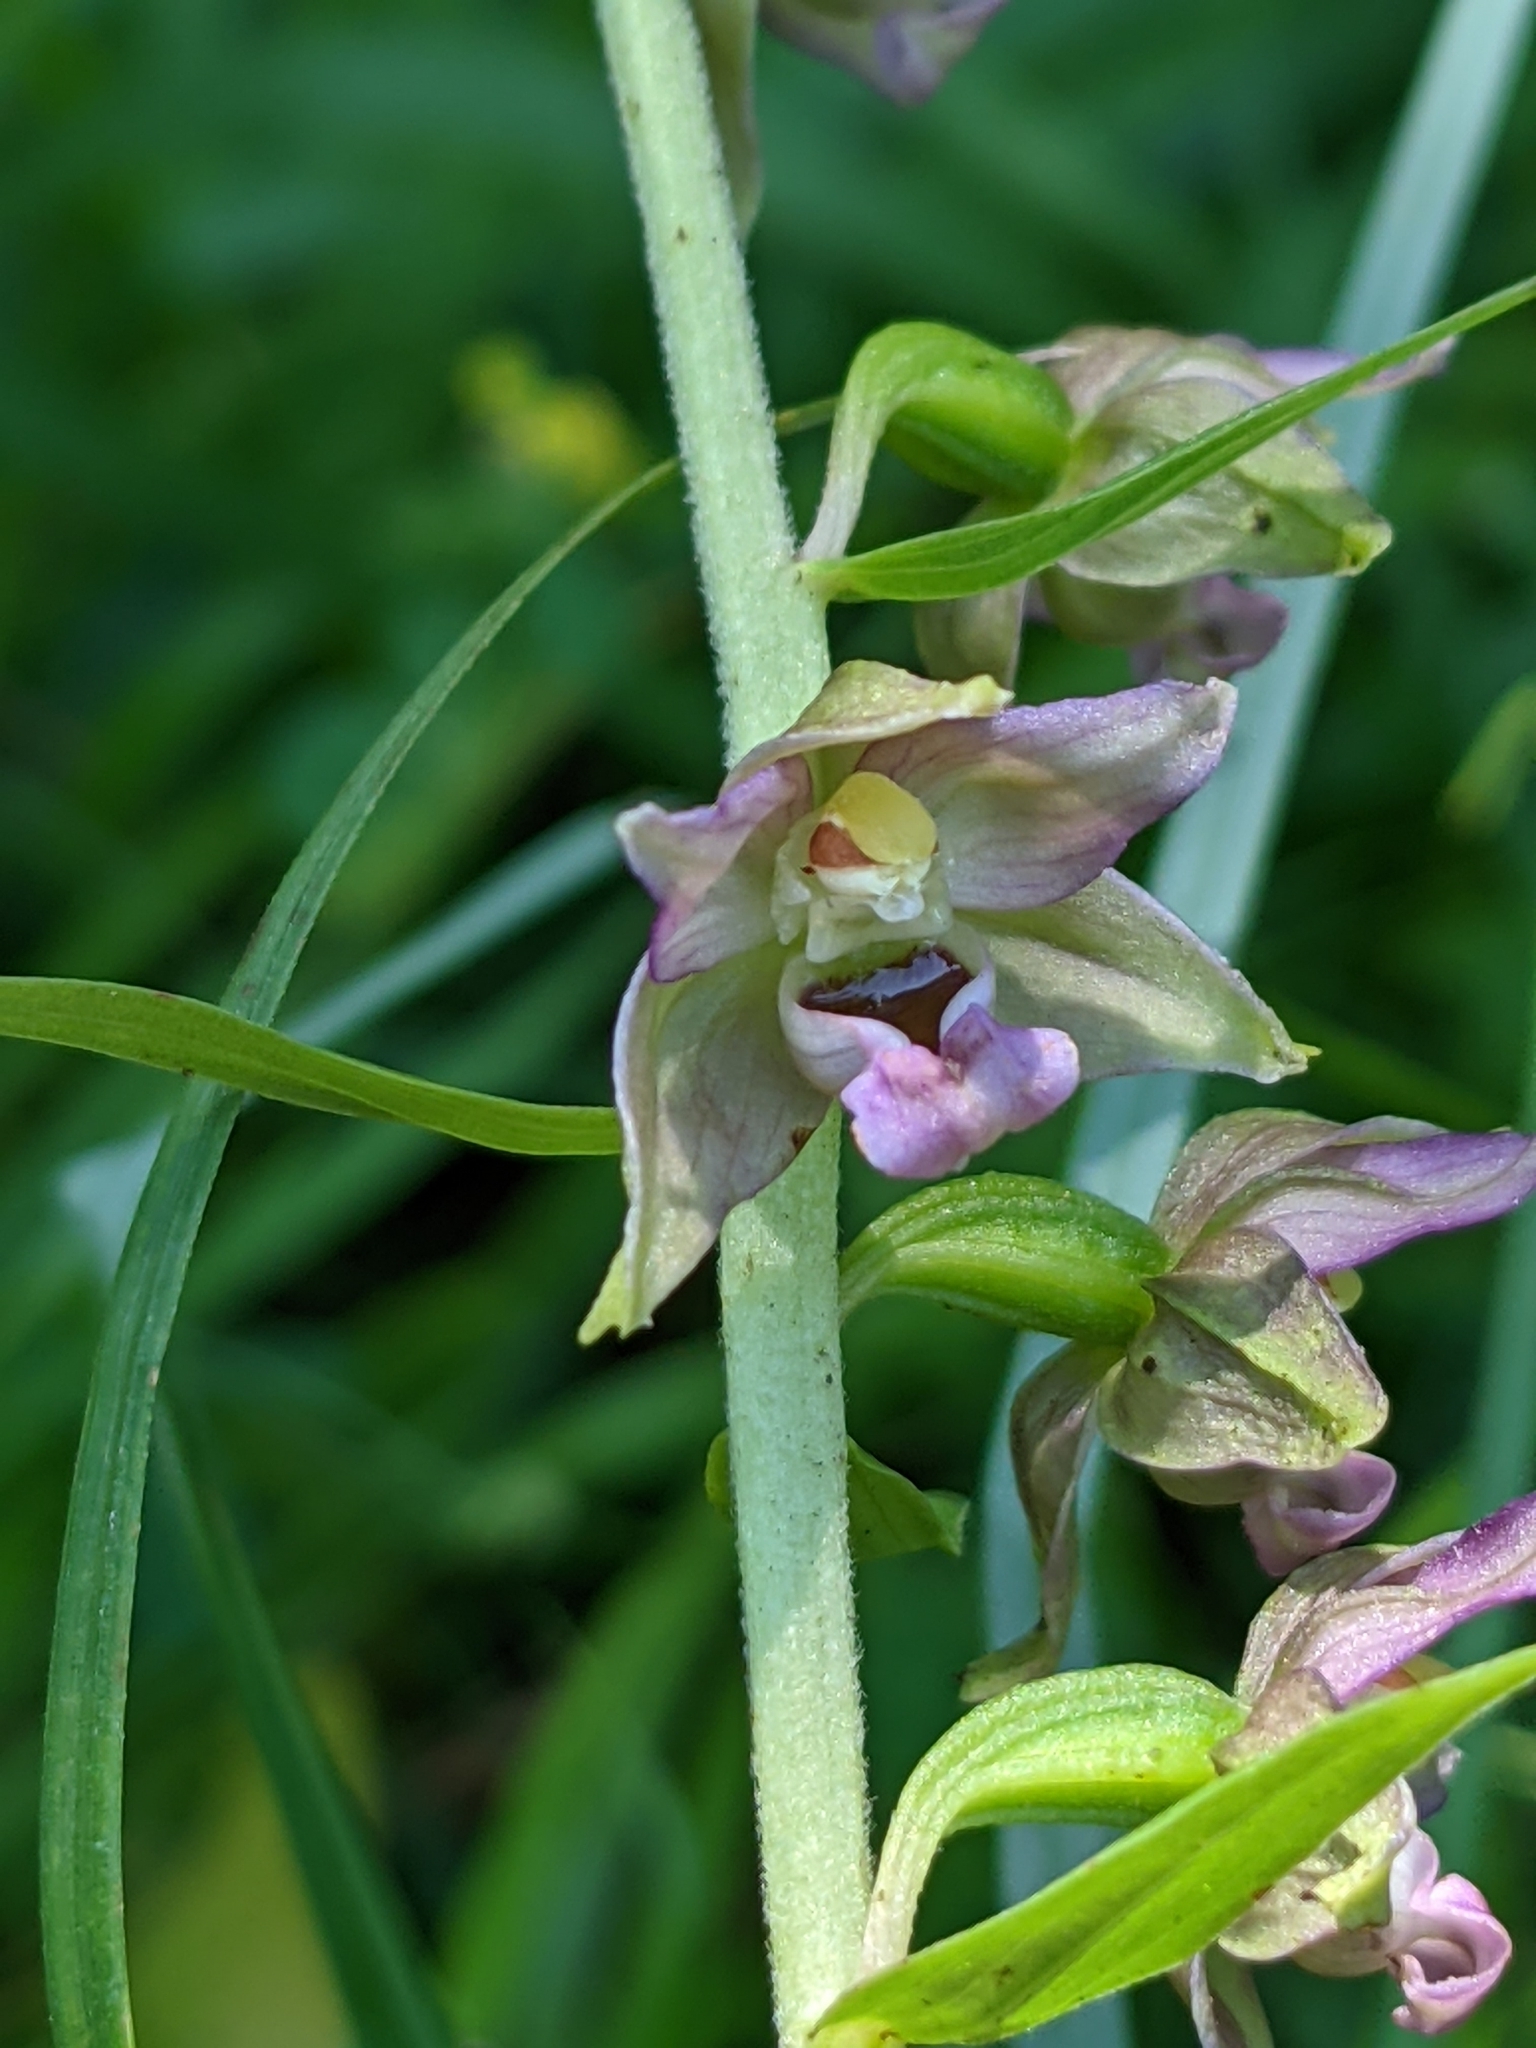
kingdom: Plantae
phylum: Tracheophyta
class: Liliopsida
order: Asparagales
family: Orchidaceae
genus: Epipactis
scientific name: Epipactis helleborine
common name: Broad-leaved helleborine
